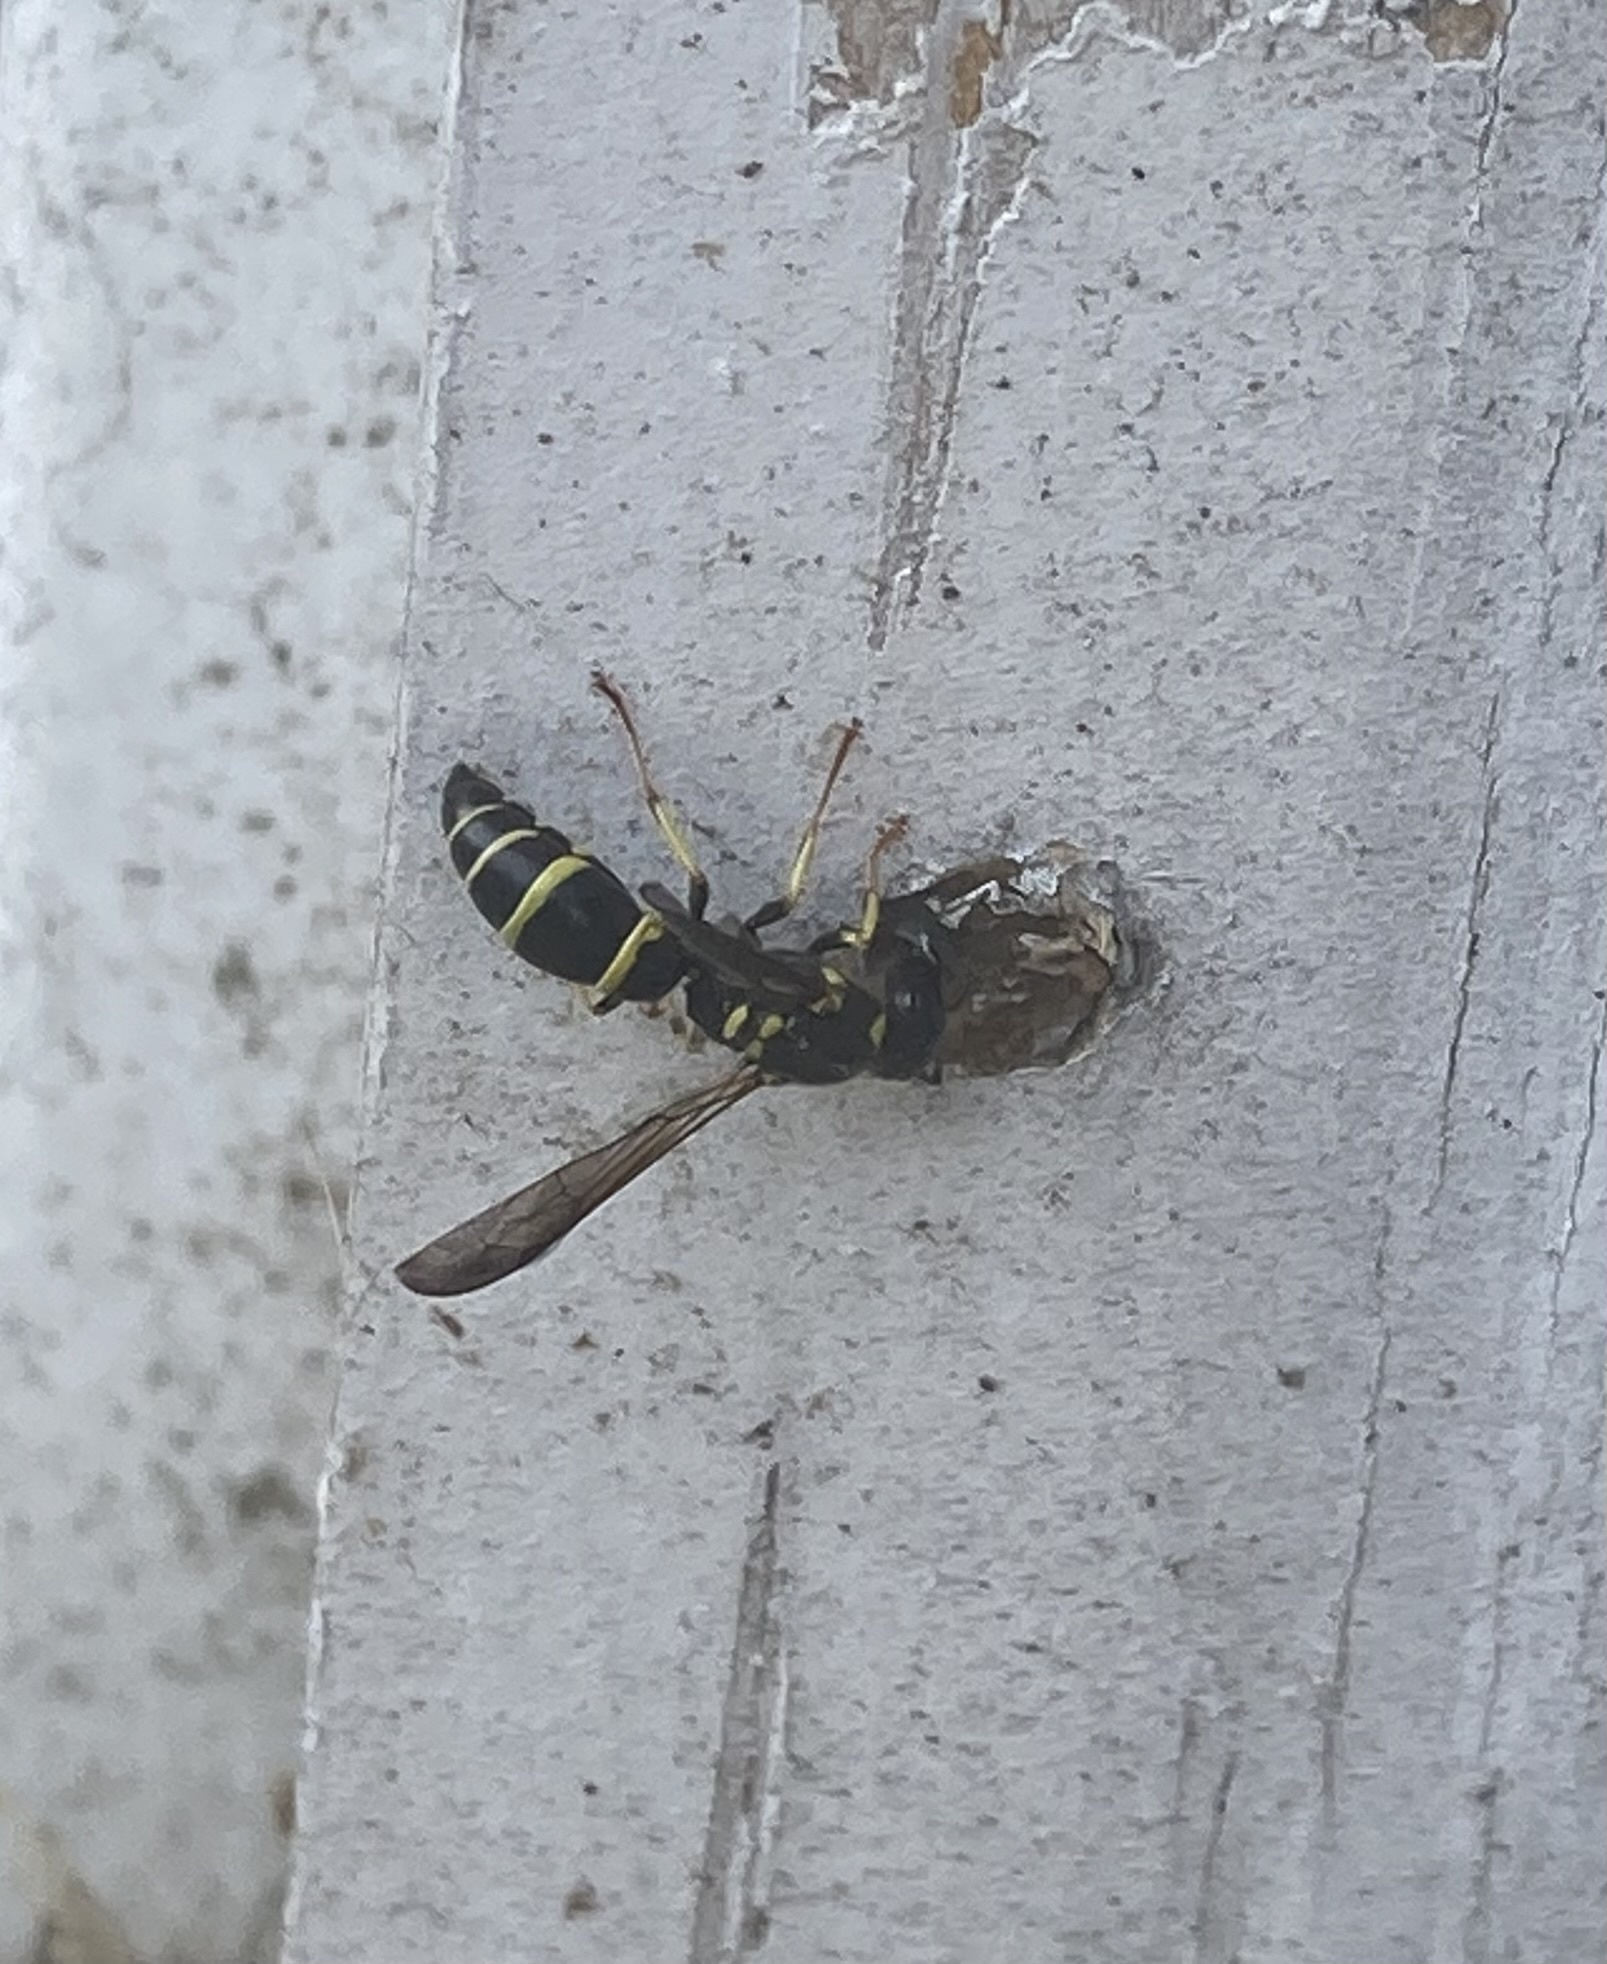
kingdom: Animalia
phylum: Arthropoda
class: Insecta
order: Hymenoptera
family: Vespidae
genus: Ancistrocerus
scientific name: Ancistrocerus adiabatus
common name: Bramble mason wasp
